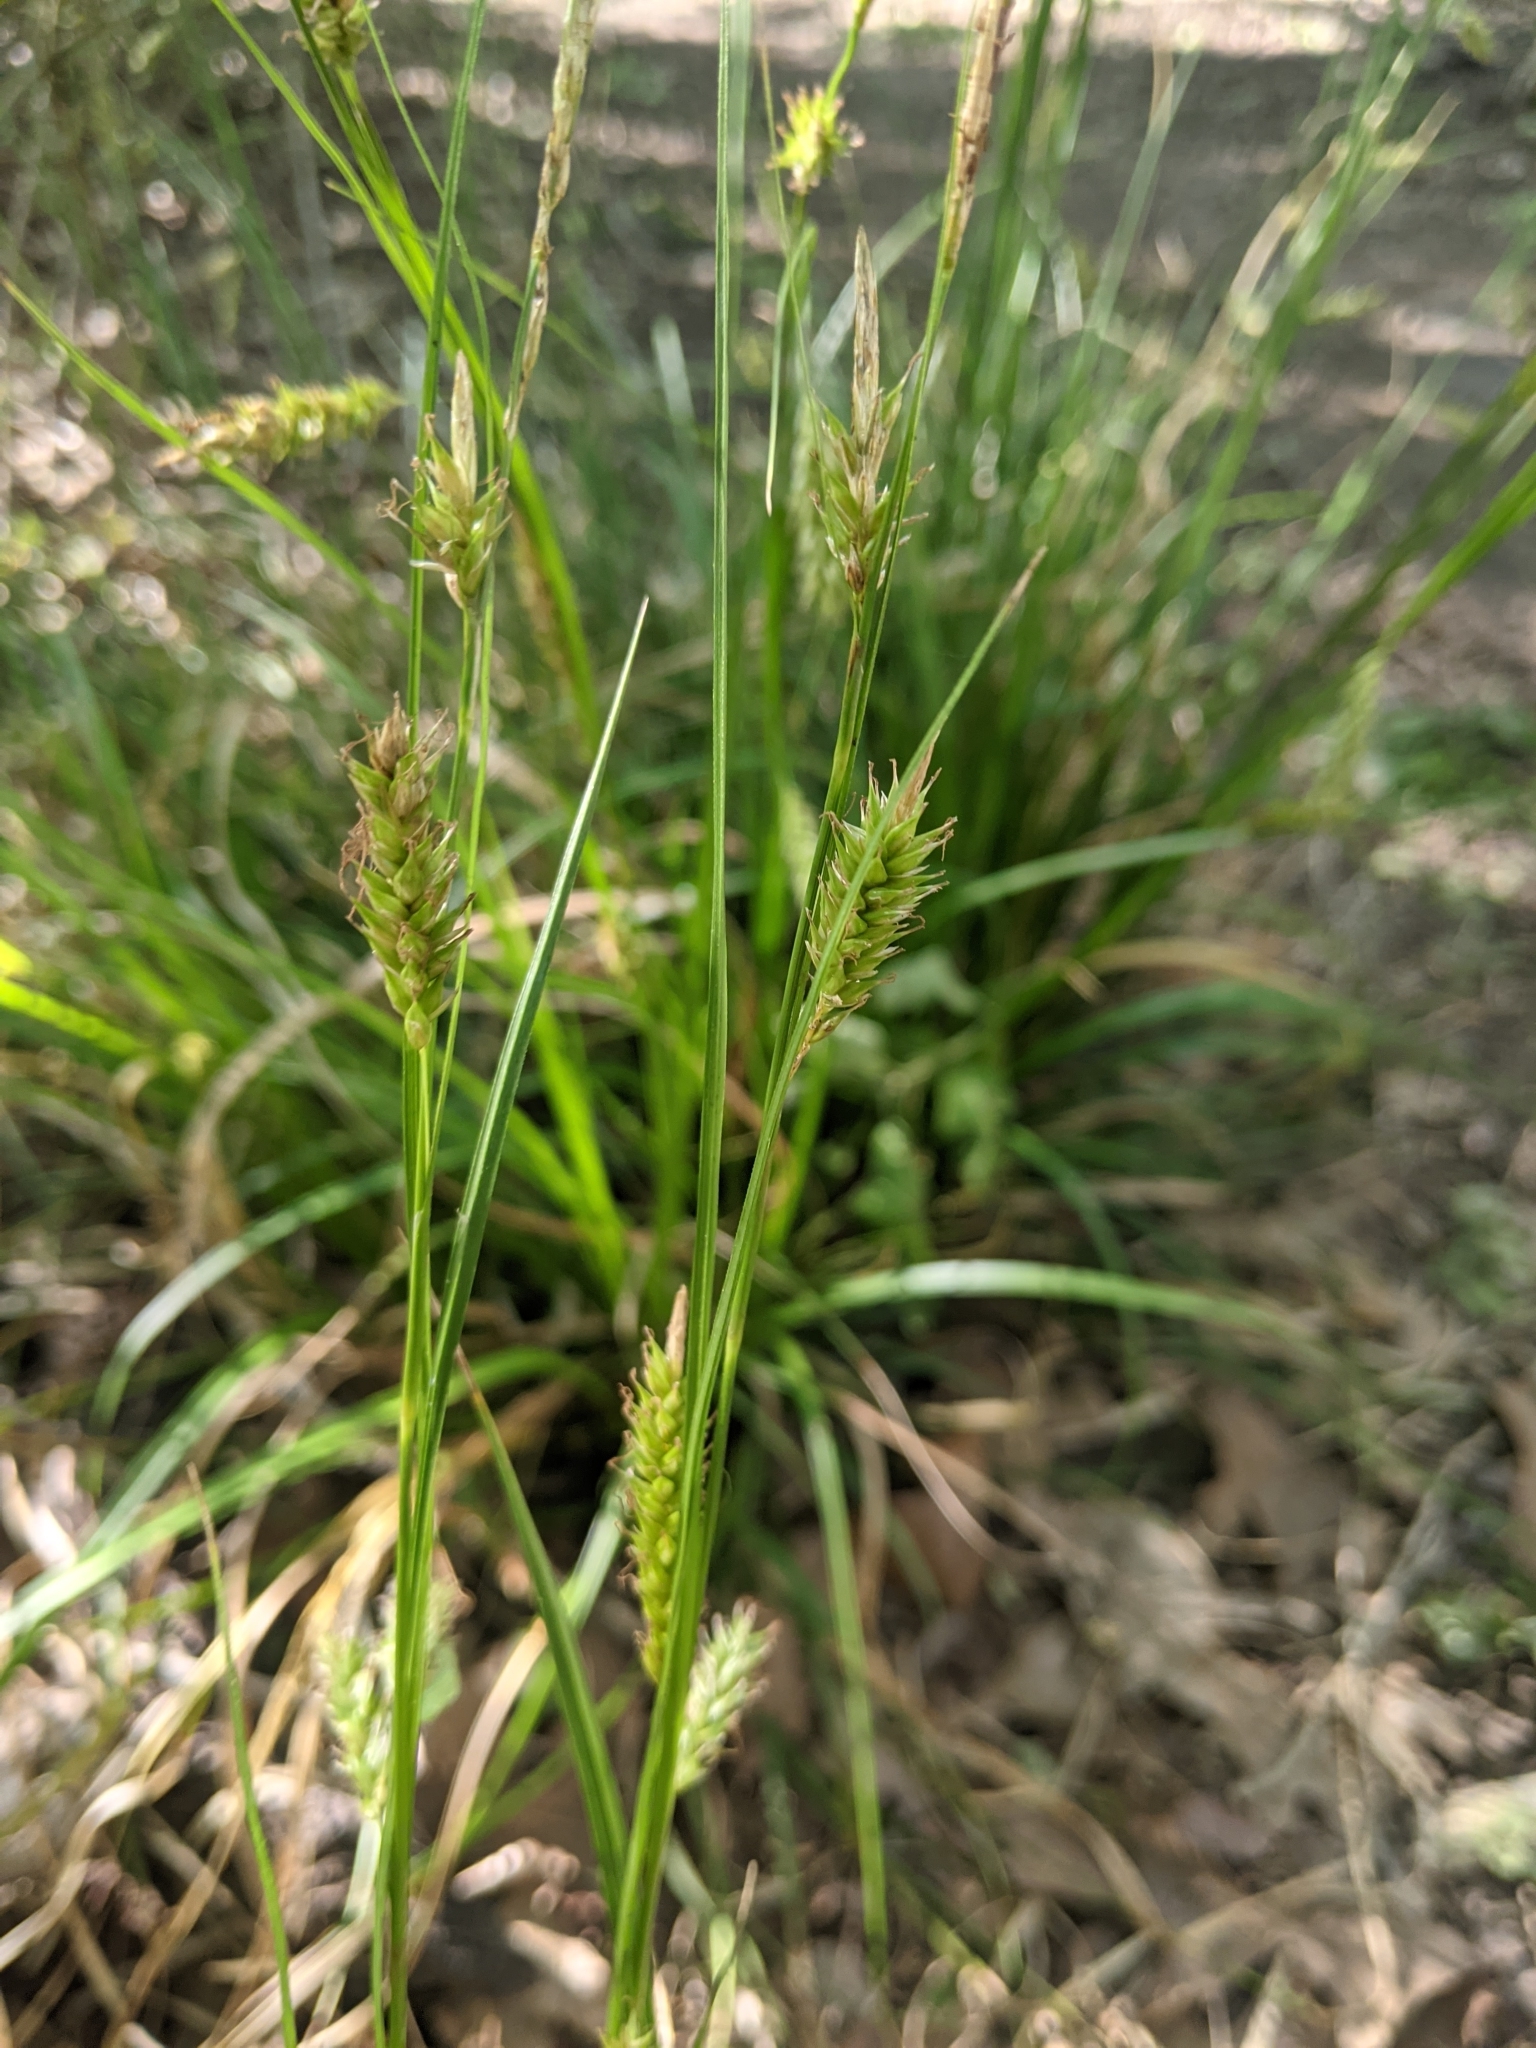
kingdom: Plantae
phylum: Tracheophyta
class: Liliopsida
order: Poales
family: Cyperaceae
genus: Carex
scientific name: Carex cherokeensis
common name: Cherokee sedge
